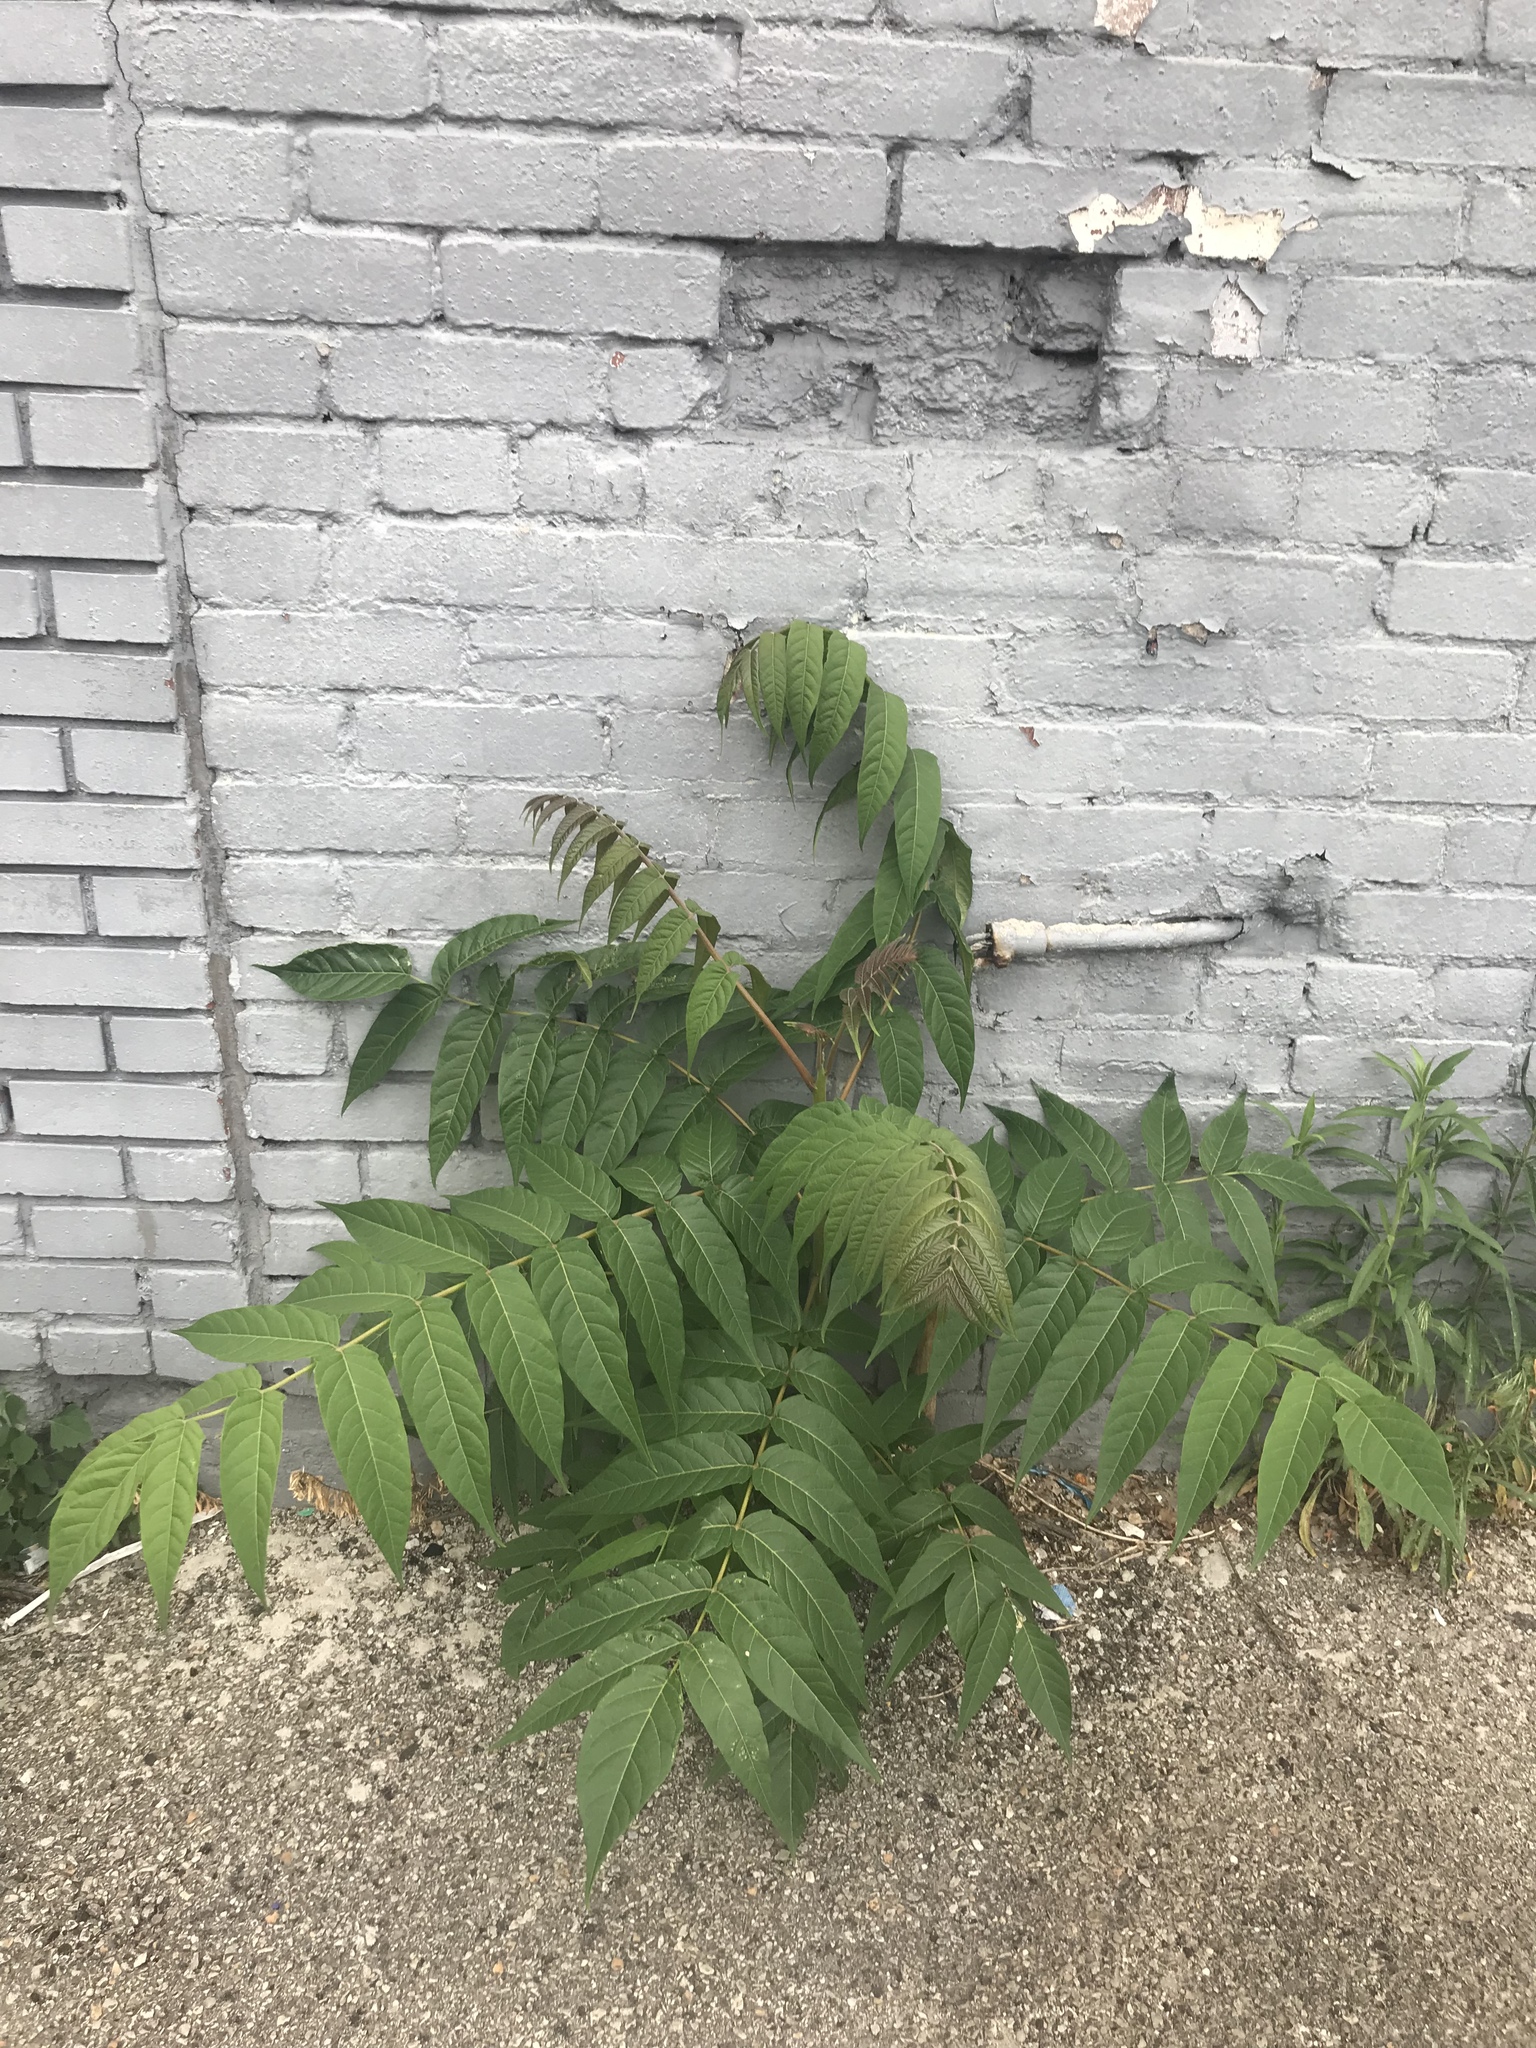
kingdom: Plantae
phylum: Tracheophyta
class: Magnoliopsida
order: Sapindales
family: Simaroubaceae
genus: Ailanthus
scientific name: Ailanthus altissima
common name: Tree-of-heaven
